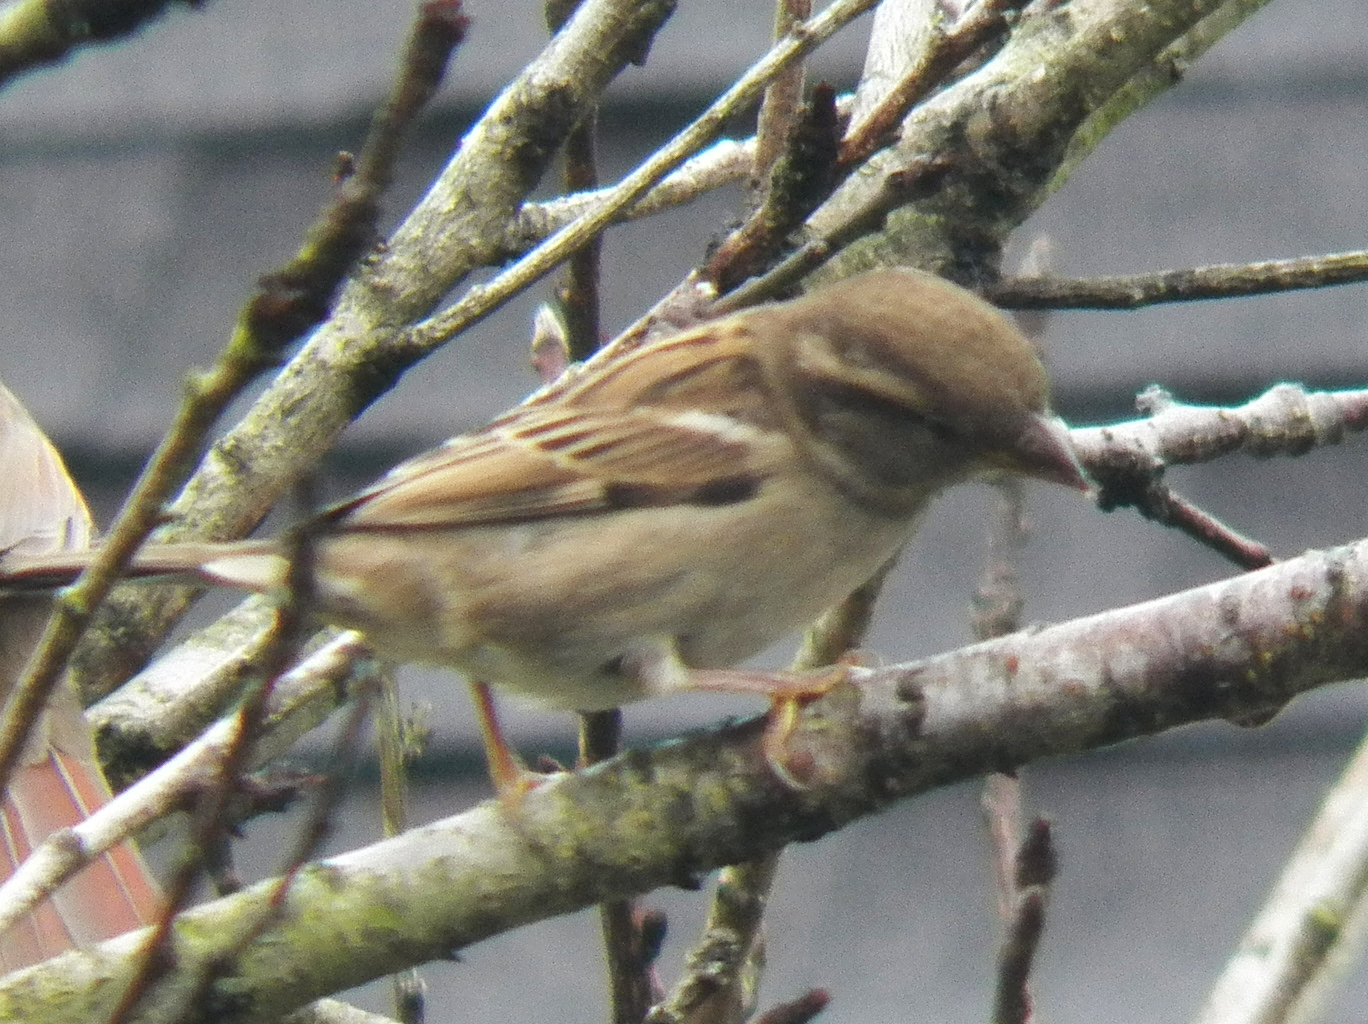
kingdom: Animalia
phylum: Chordata
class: Aves
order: Passeriformes
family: Passeridae
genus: Passer
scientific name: Passer domesticus
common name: House sparrow
